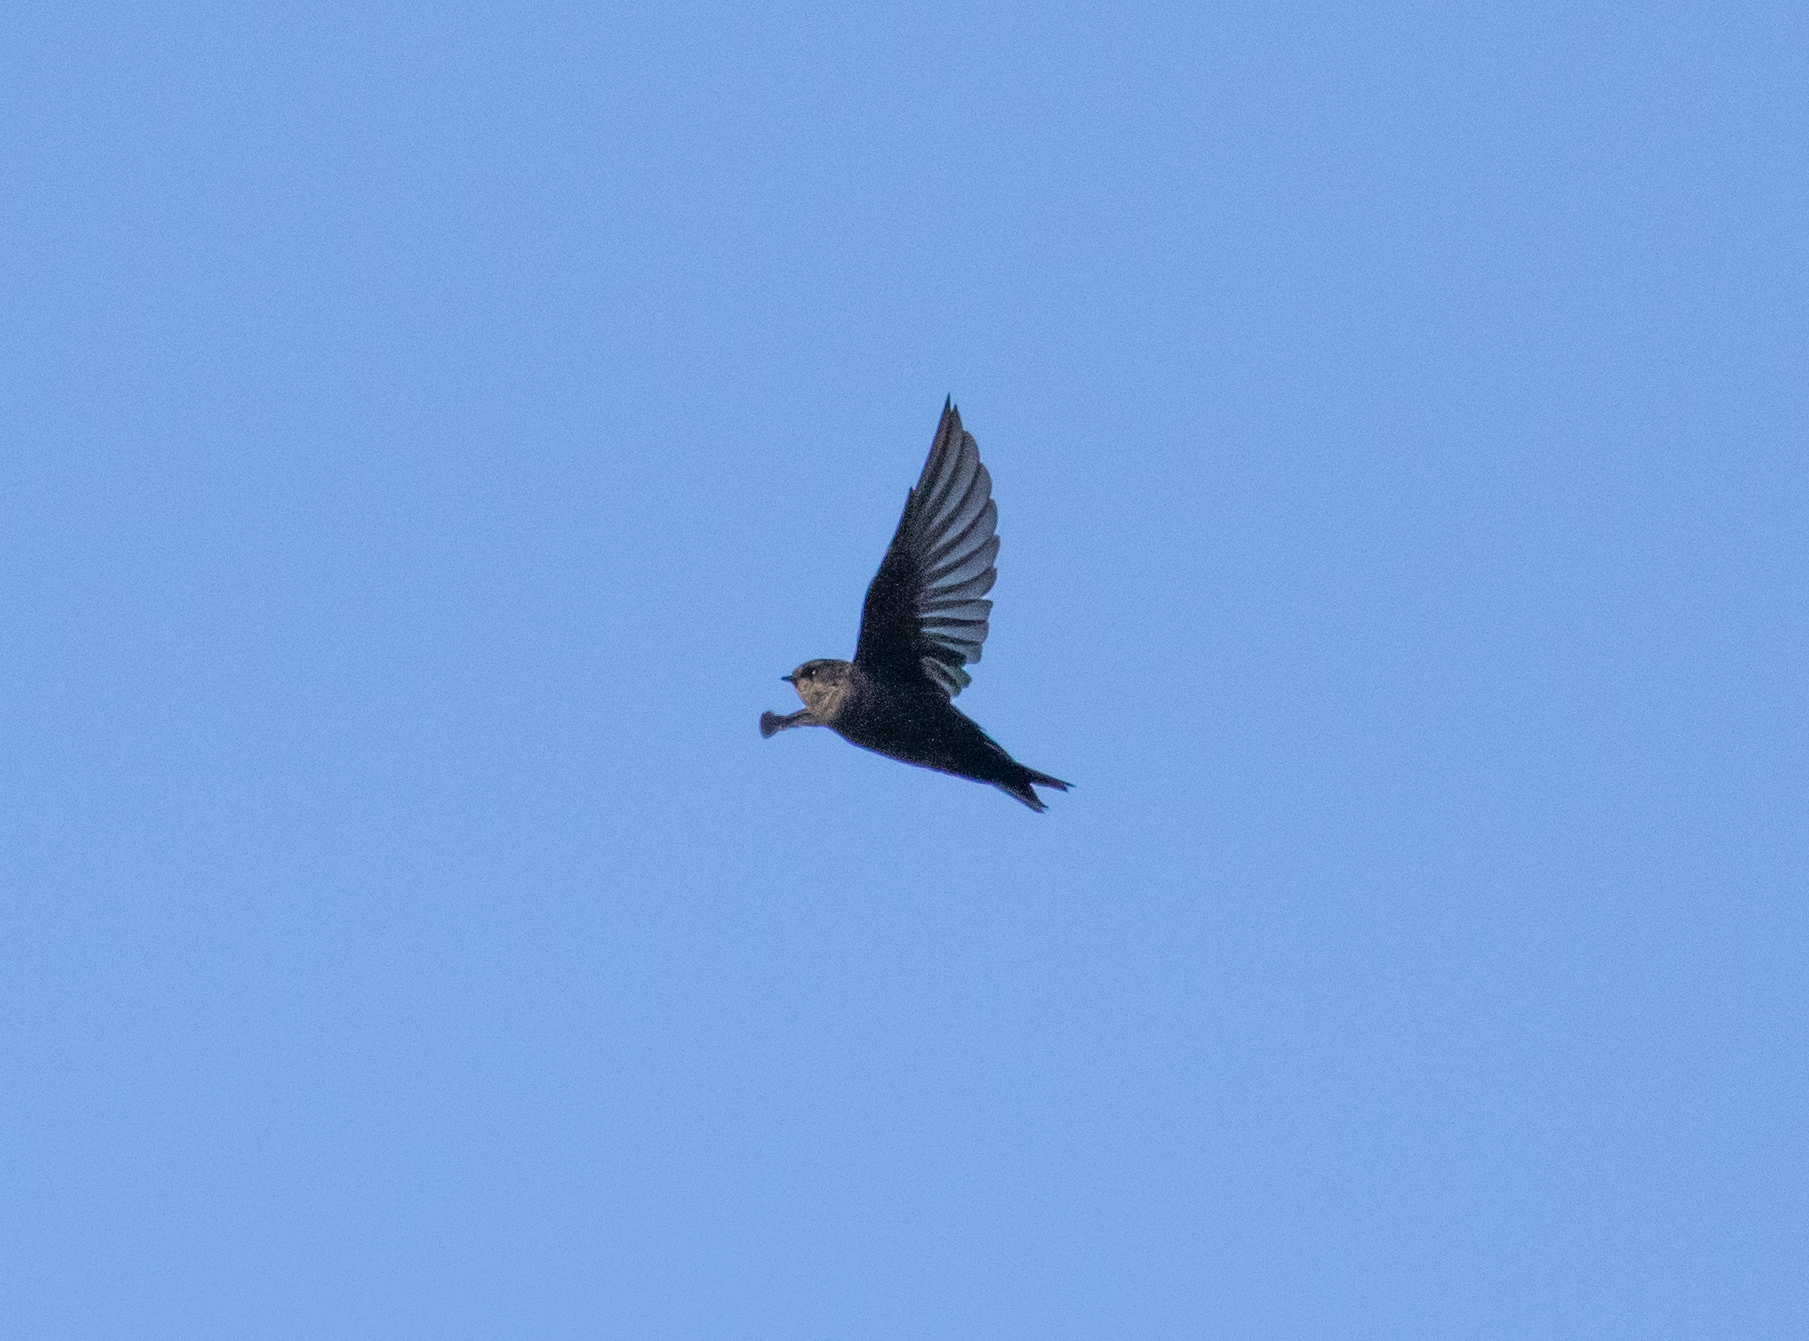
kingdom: Animalia
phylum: Chordata
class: Aves
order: Passeriformes
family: Hirundinidae
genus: Notiochelidon
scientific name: Notiochelidon murina
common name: Brown-bellied swallow
